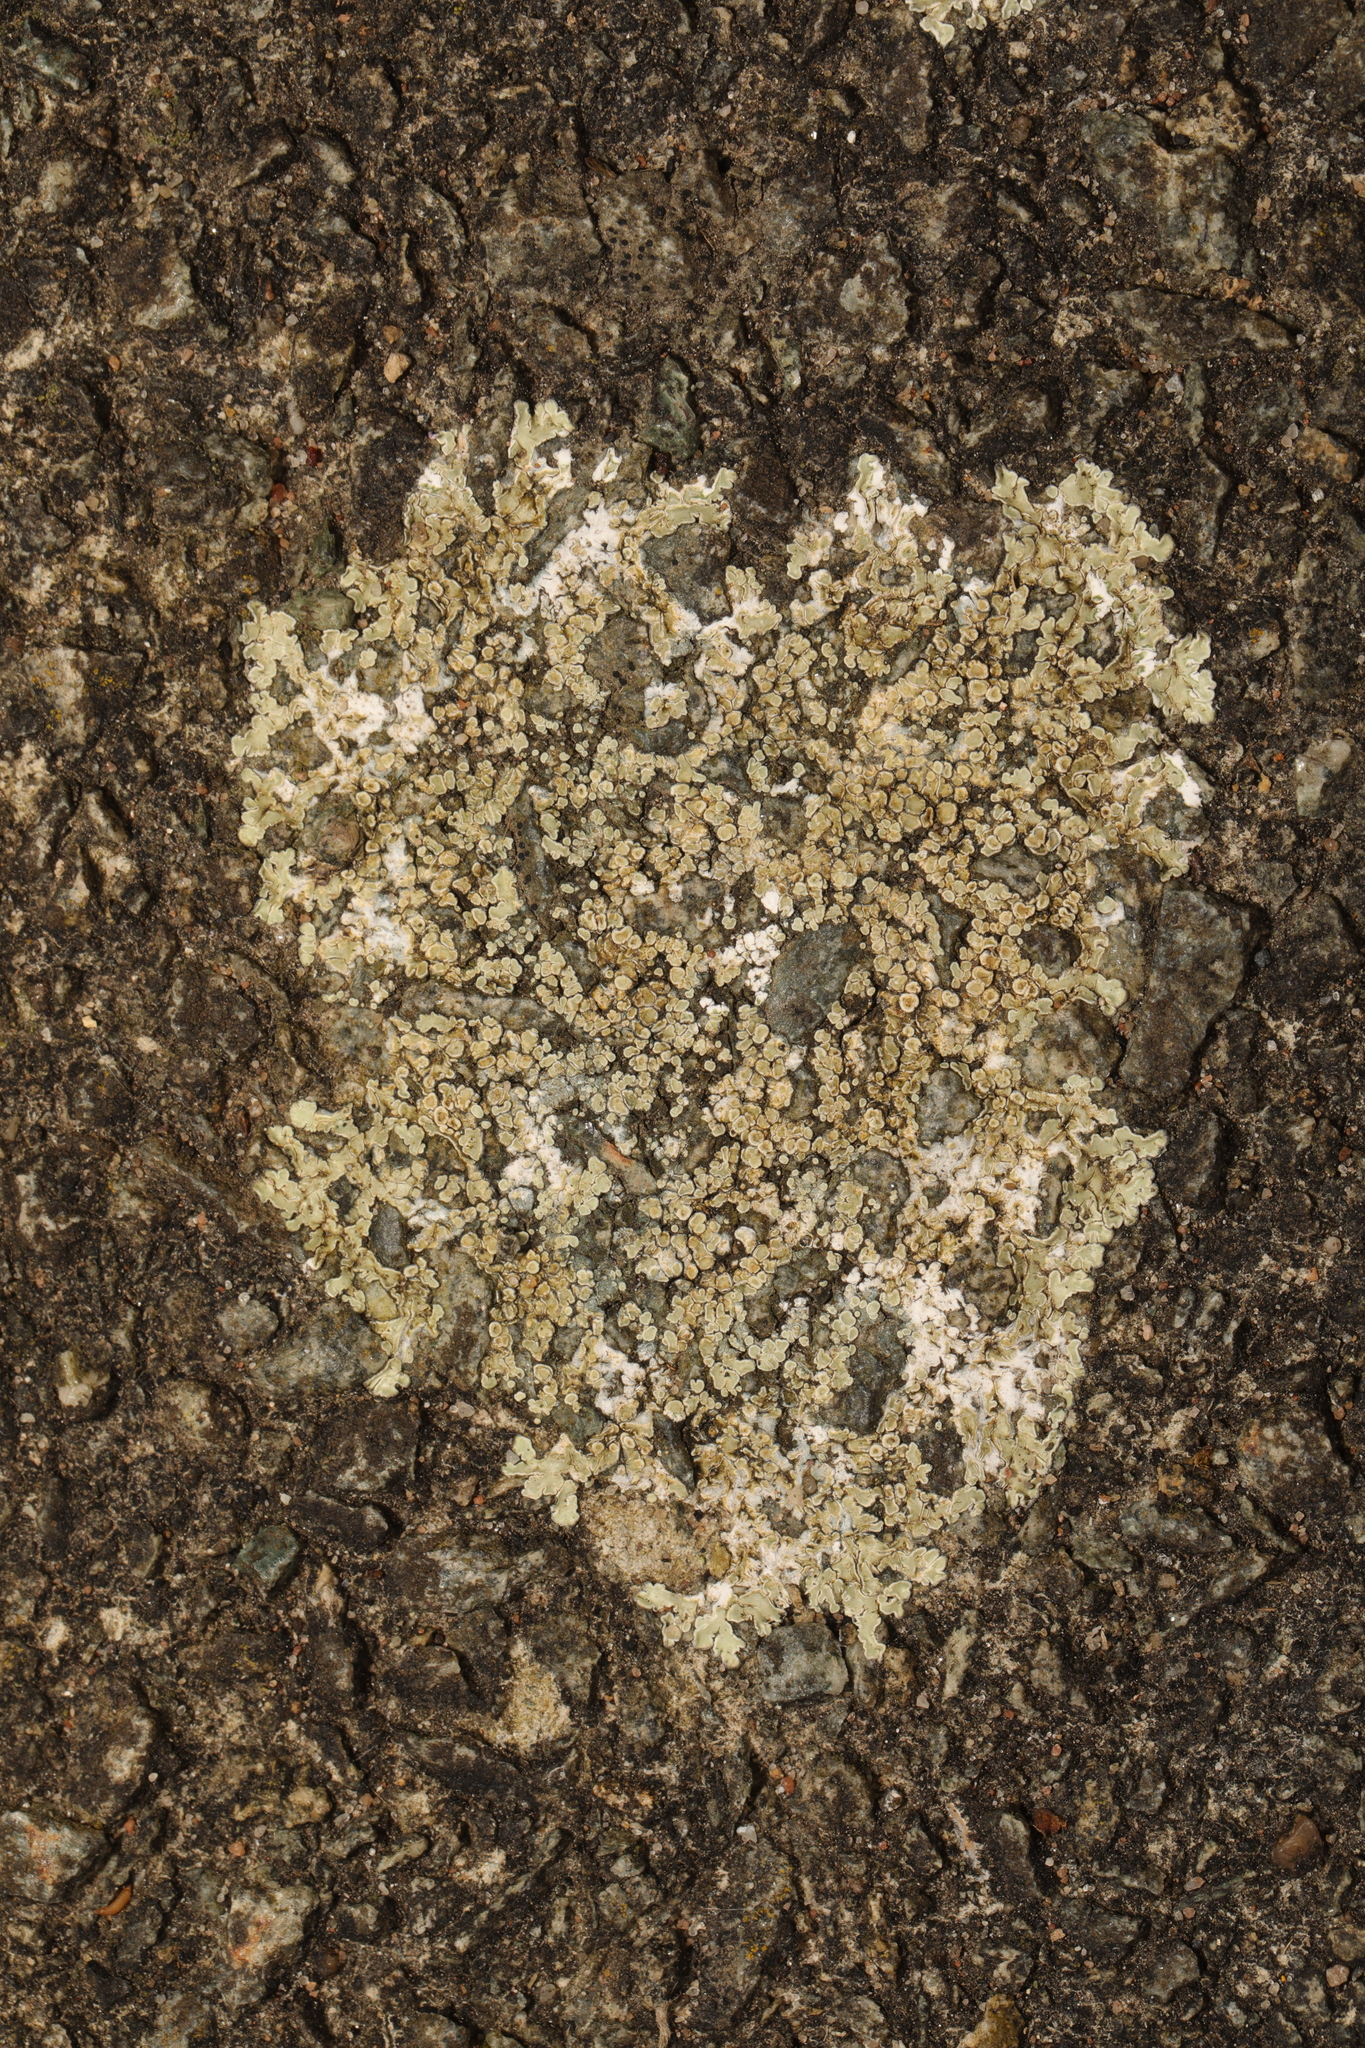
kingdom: Fungi
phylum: Ascomycota
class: Lecanoromycetes
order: Lecanorales
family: Lecanoraceae
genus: Protoparmeliopsis
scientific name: Protoparmeliopsis muralis
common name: Stonewall rim lichen
